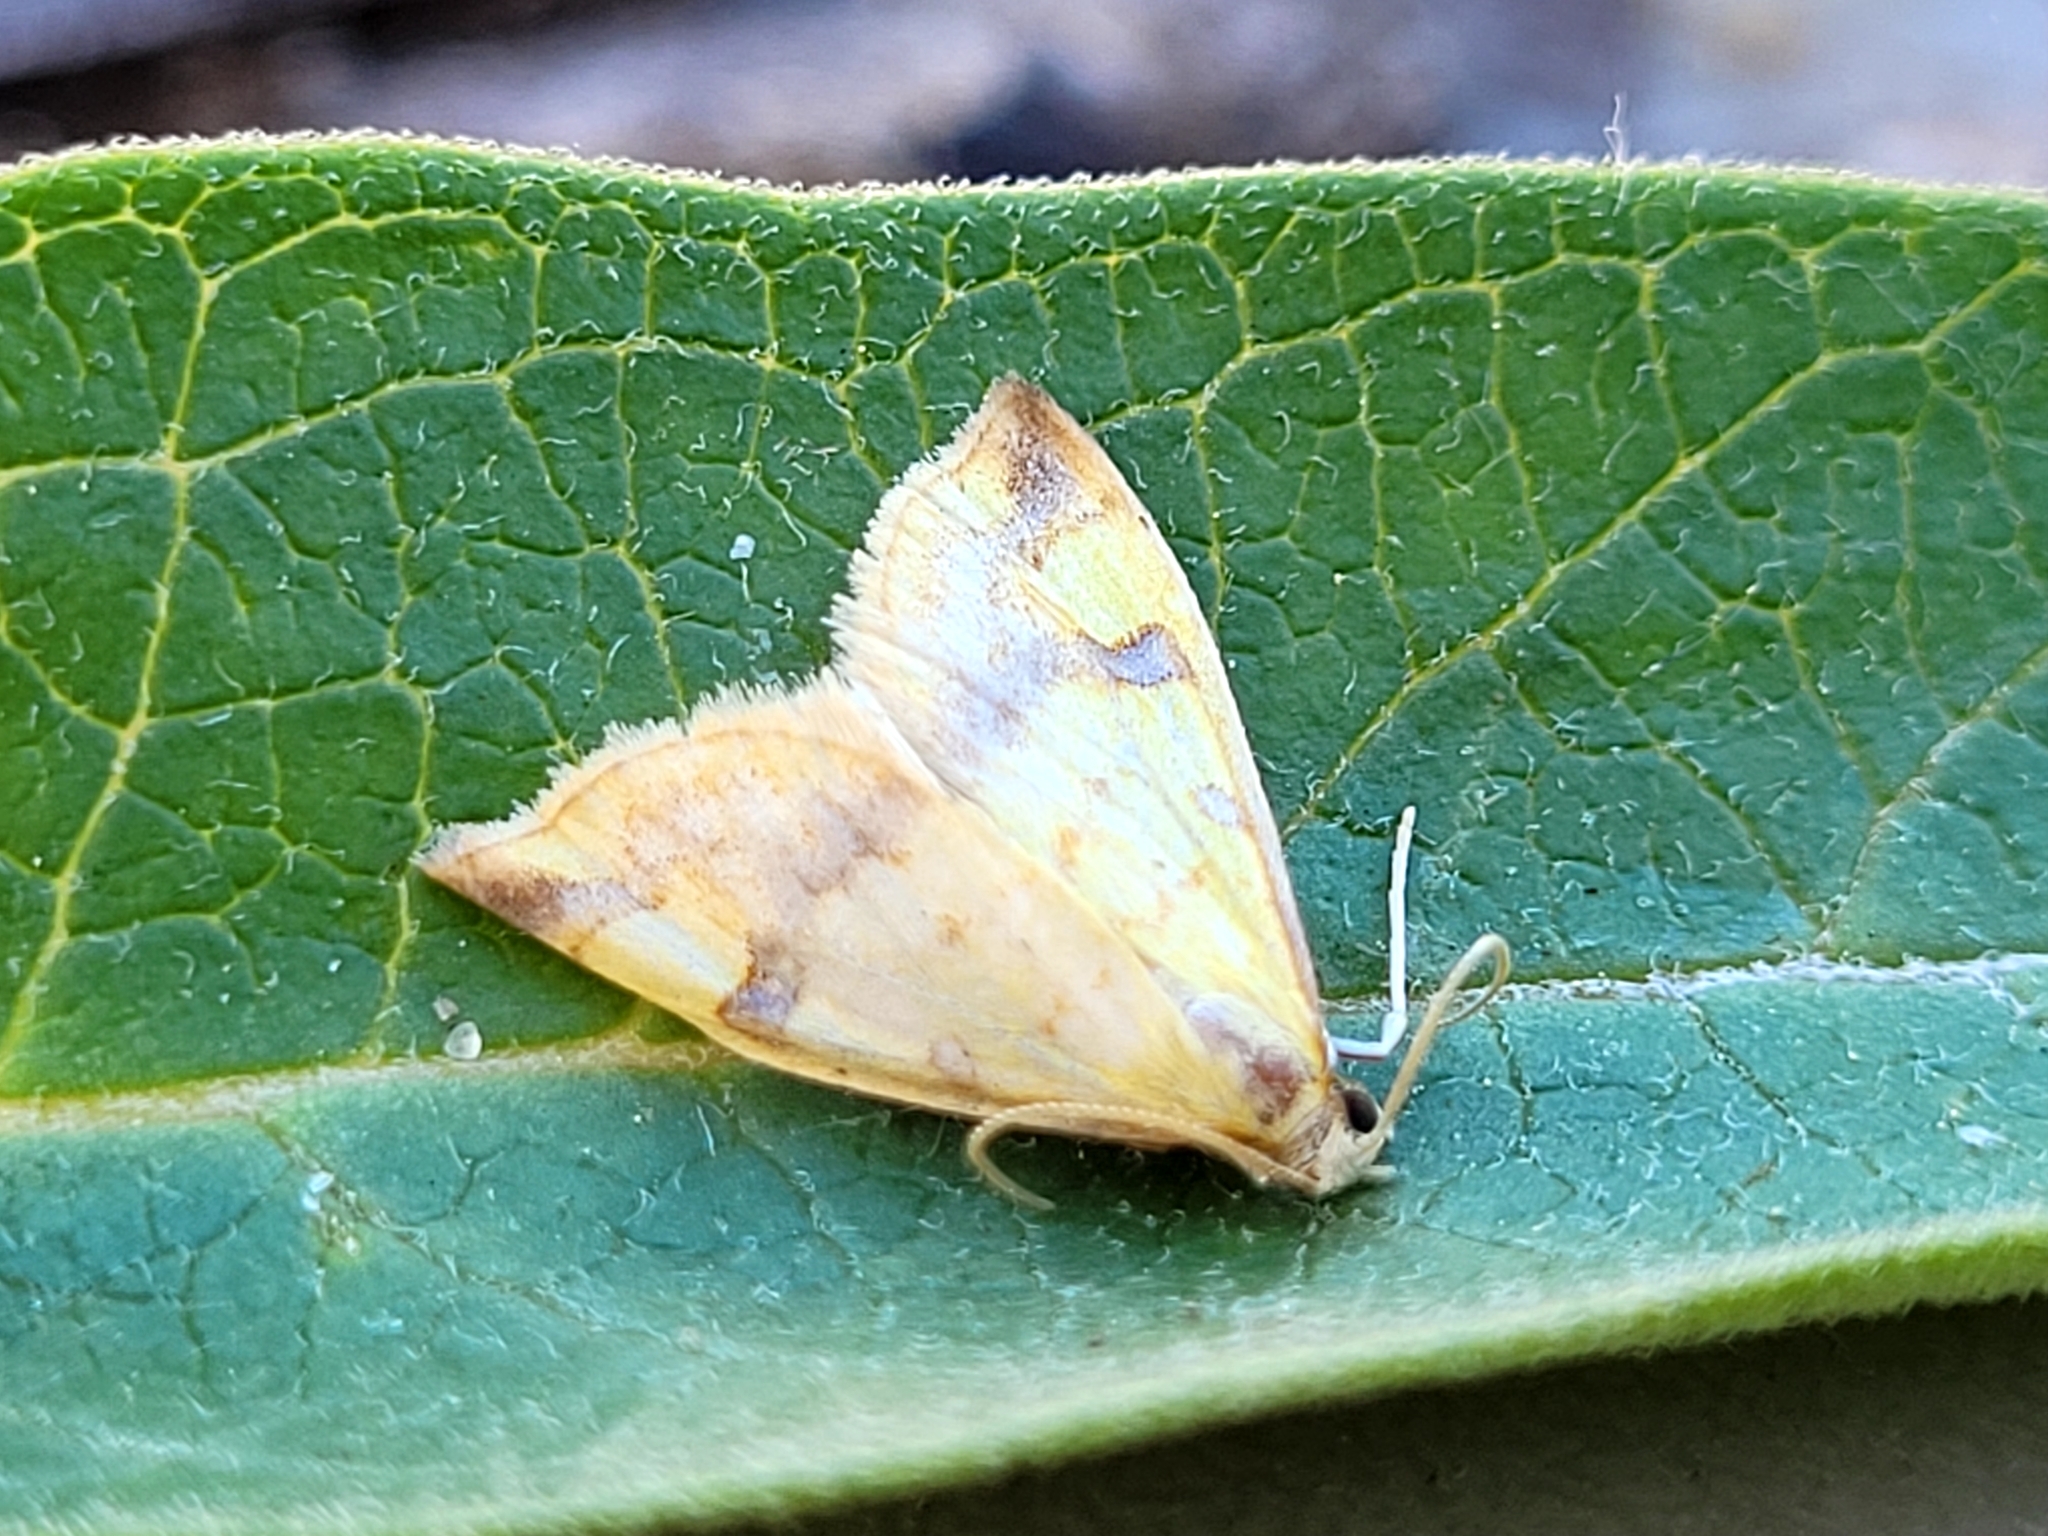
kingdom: Animalia
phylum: Arthropoda
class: Insecta
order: Lepidoptera
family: Crambidae
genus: Choristostigma
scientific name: Choristostigma plumbosignalis
